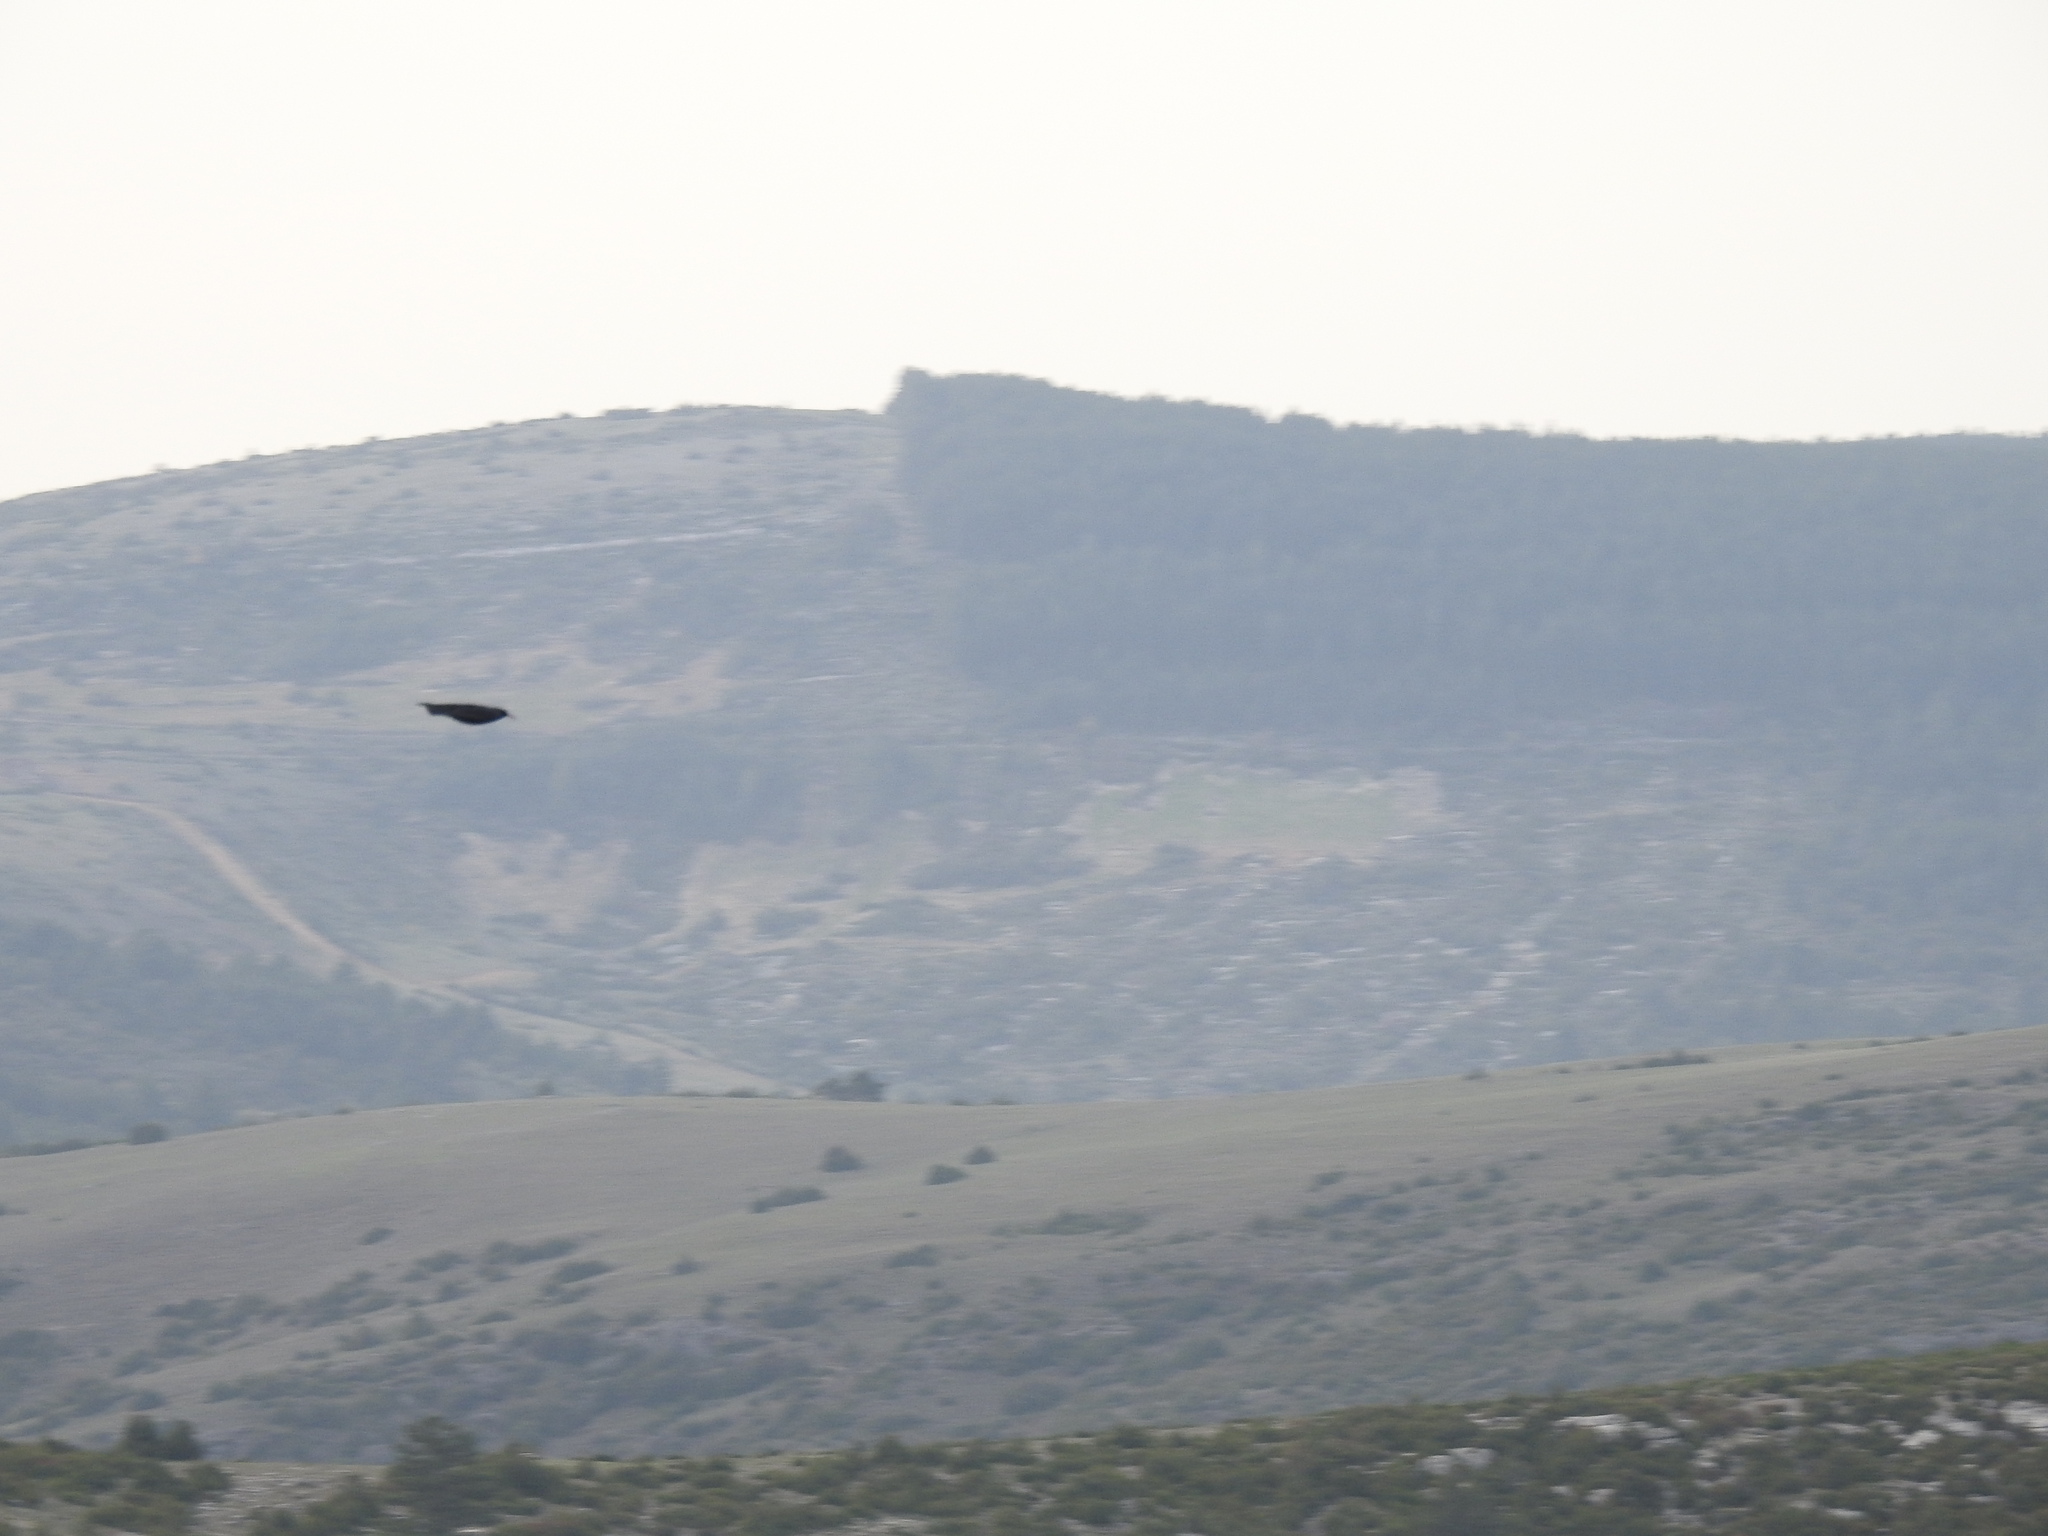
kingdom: Animalia
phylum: Chordata
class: Aves
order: Passeriformes
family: Corvidae
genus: Pyrrhocorax
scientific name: Pyrrhocorax pyrrhocorax
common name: Red-billed chough
